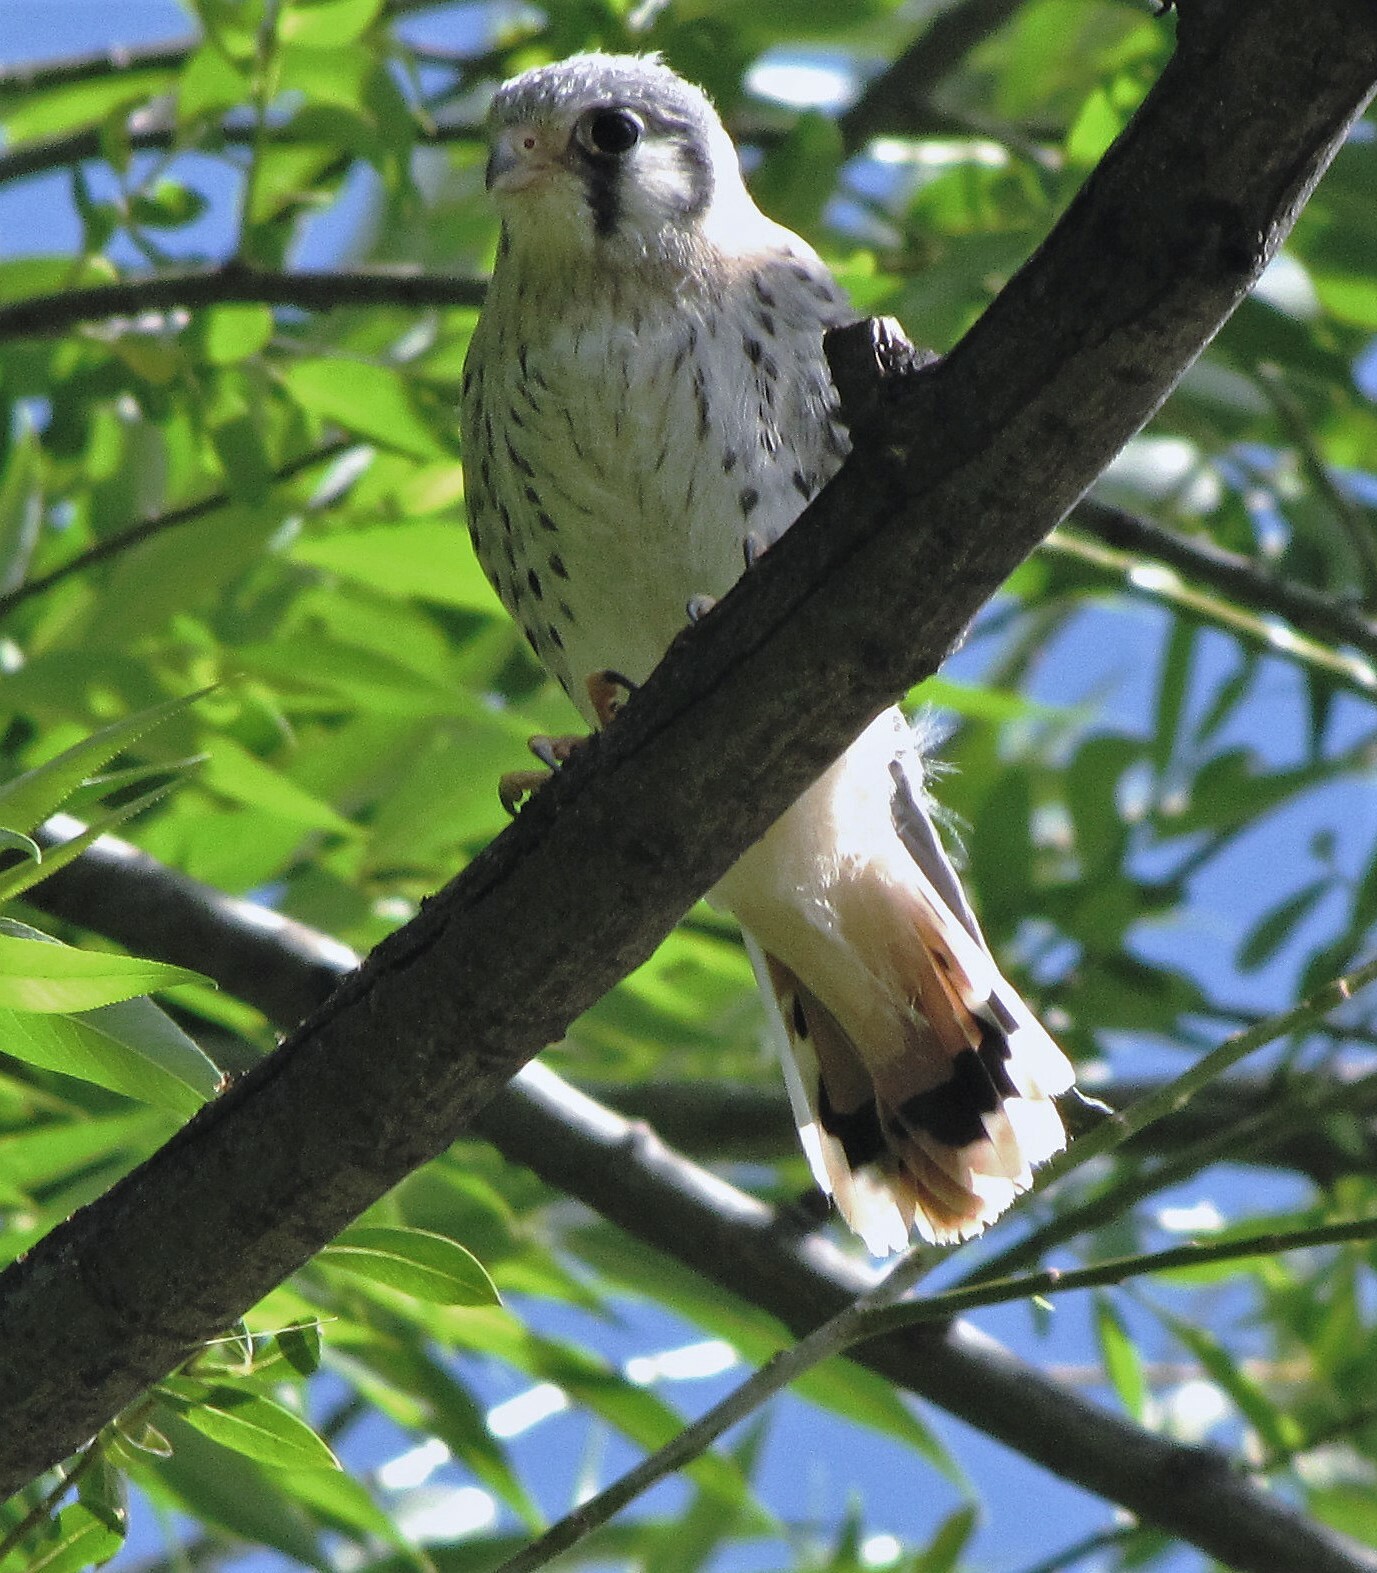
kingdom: Animalia
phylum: Chordata
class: Aves
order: Falconiformes
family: Falconidae
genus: Falco
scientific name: Falco sparverius
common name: American kestrel
